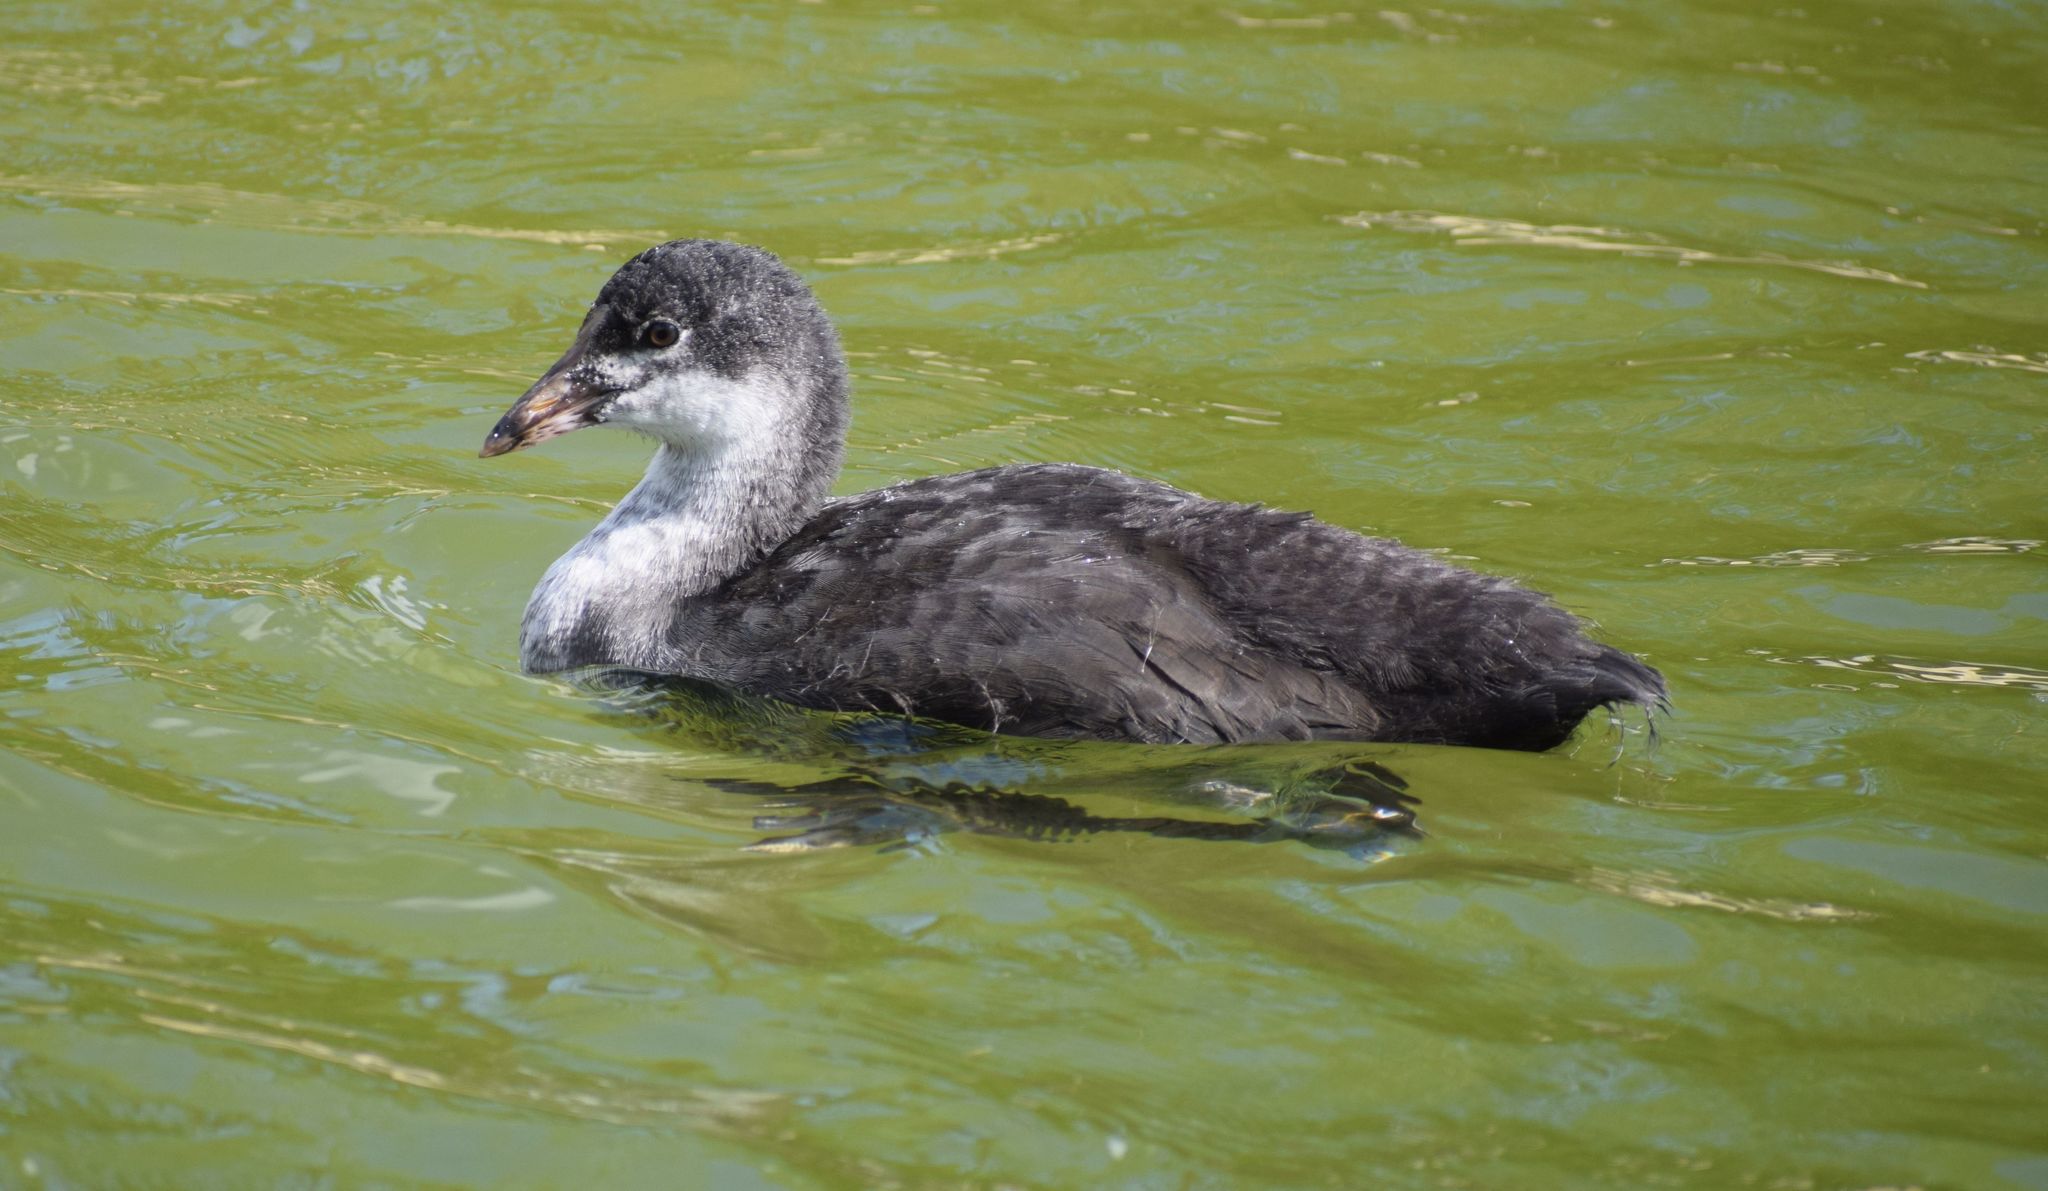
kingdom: Animalia
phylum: Chordata
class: Aves
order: Gruiformes
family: Rallidae
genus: Fulica
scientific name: Fulica atra
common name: Eurasian coot
